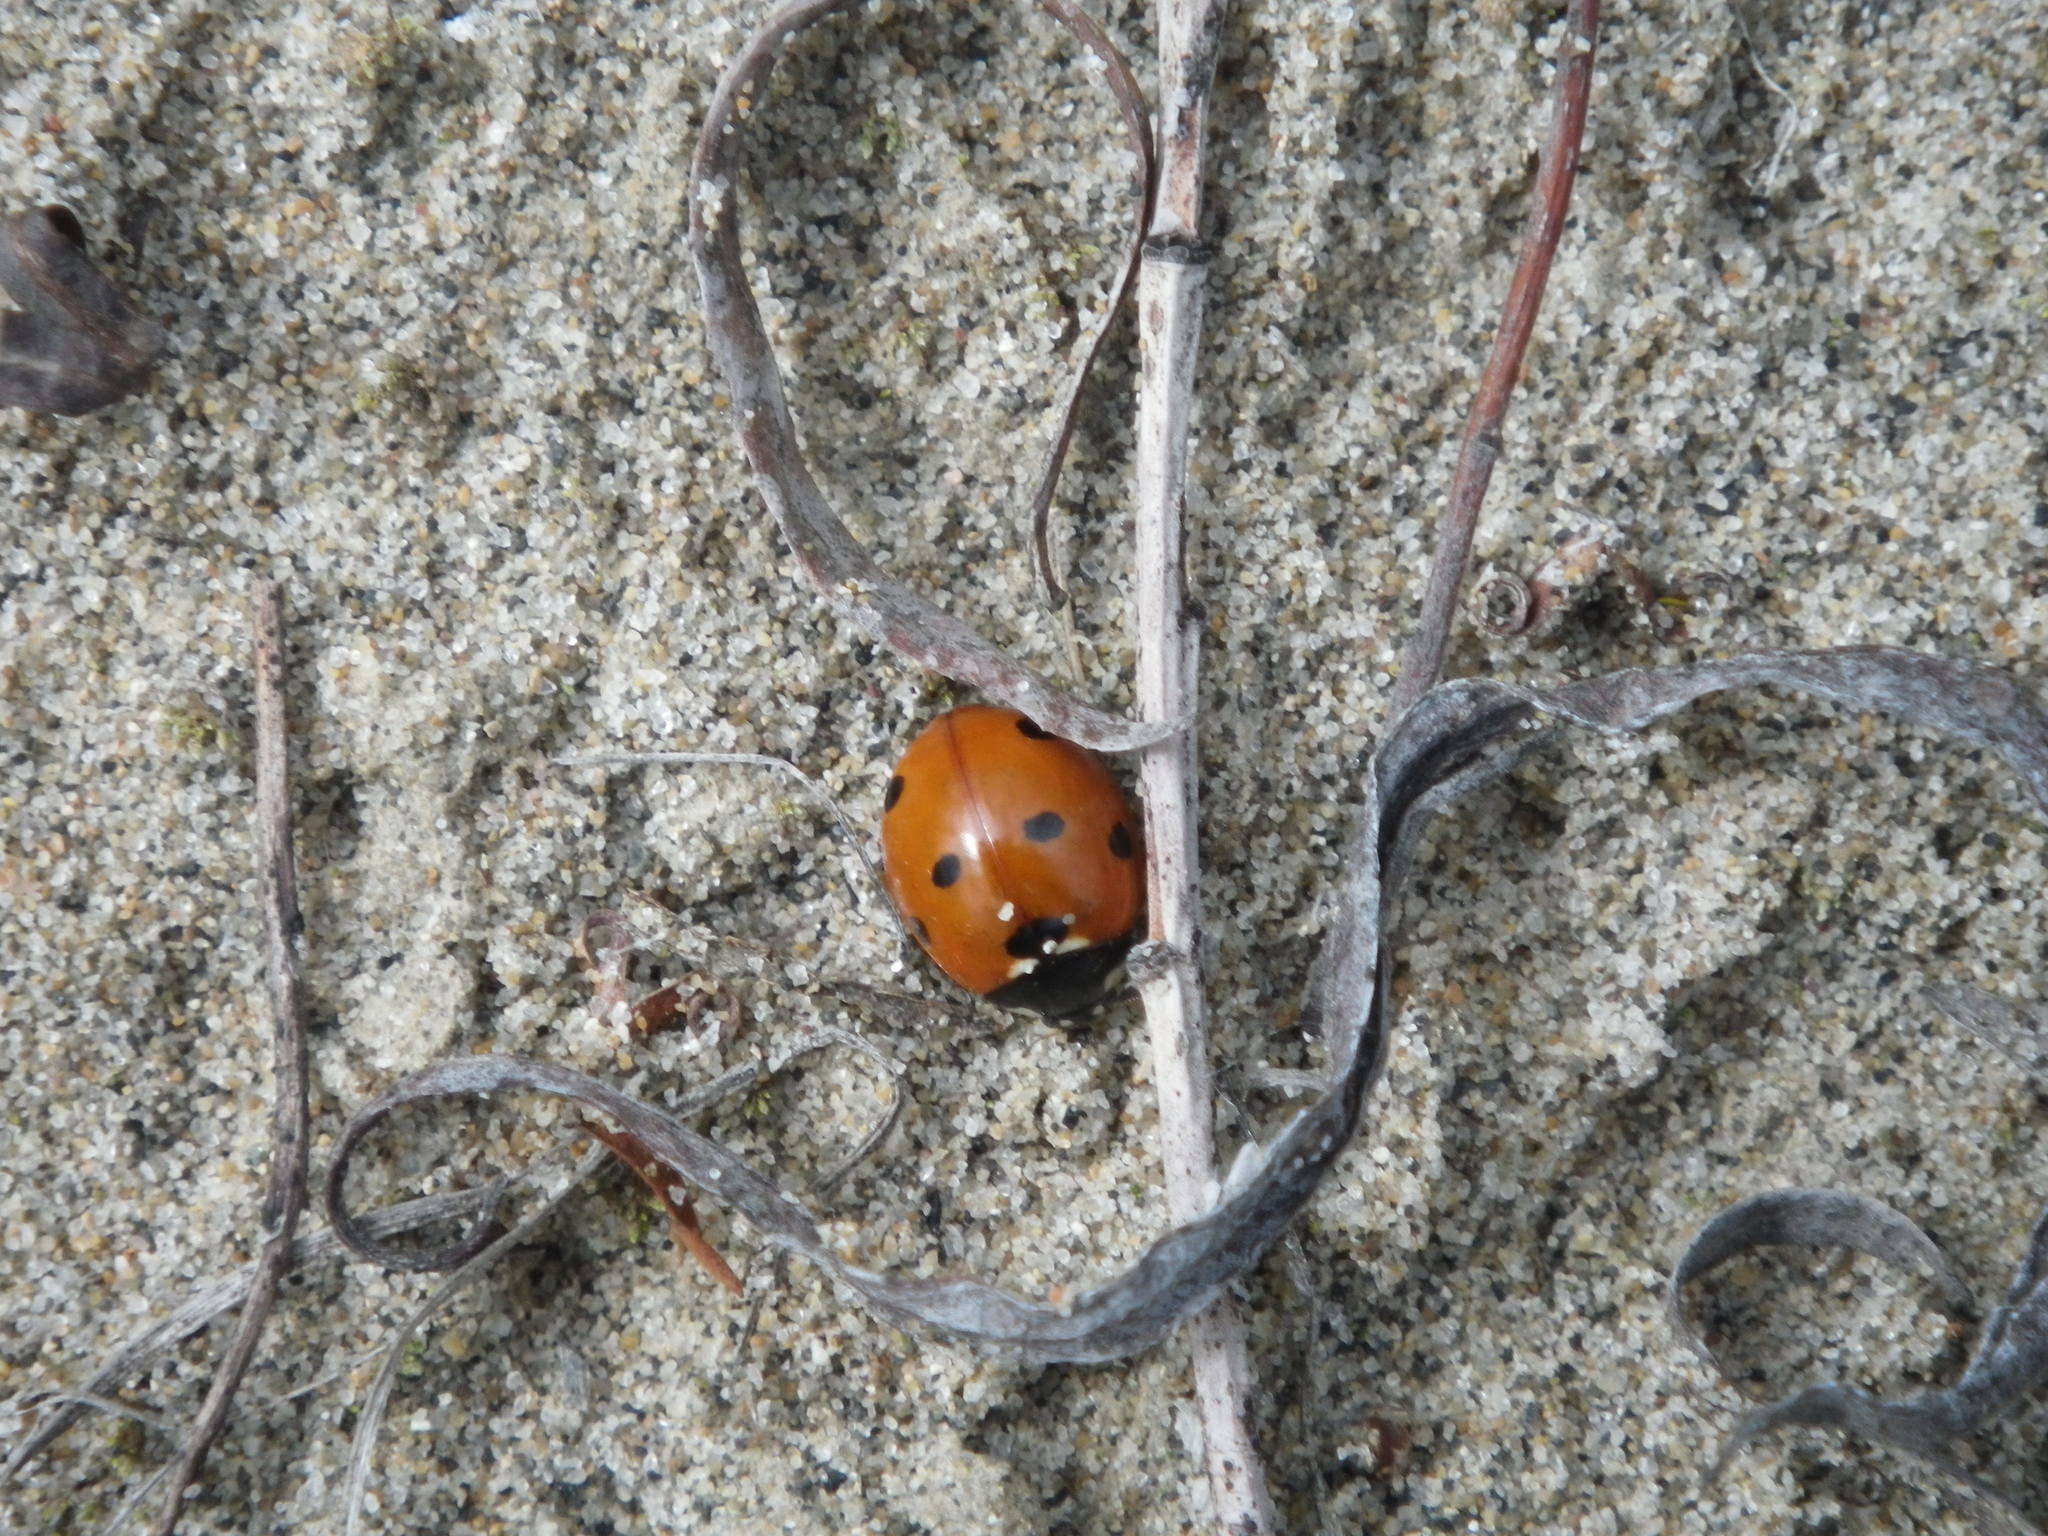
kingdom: Animalia
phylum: Arthropoda
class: Insecta
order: Coleoptera
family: Coccinellidae
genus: Coccinella
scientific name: Coccinella septempunctata
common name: Sevenspotted lady beetle
